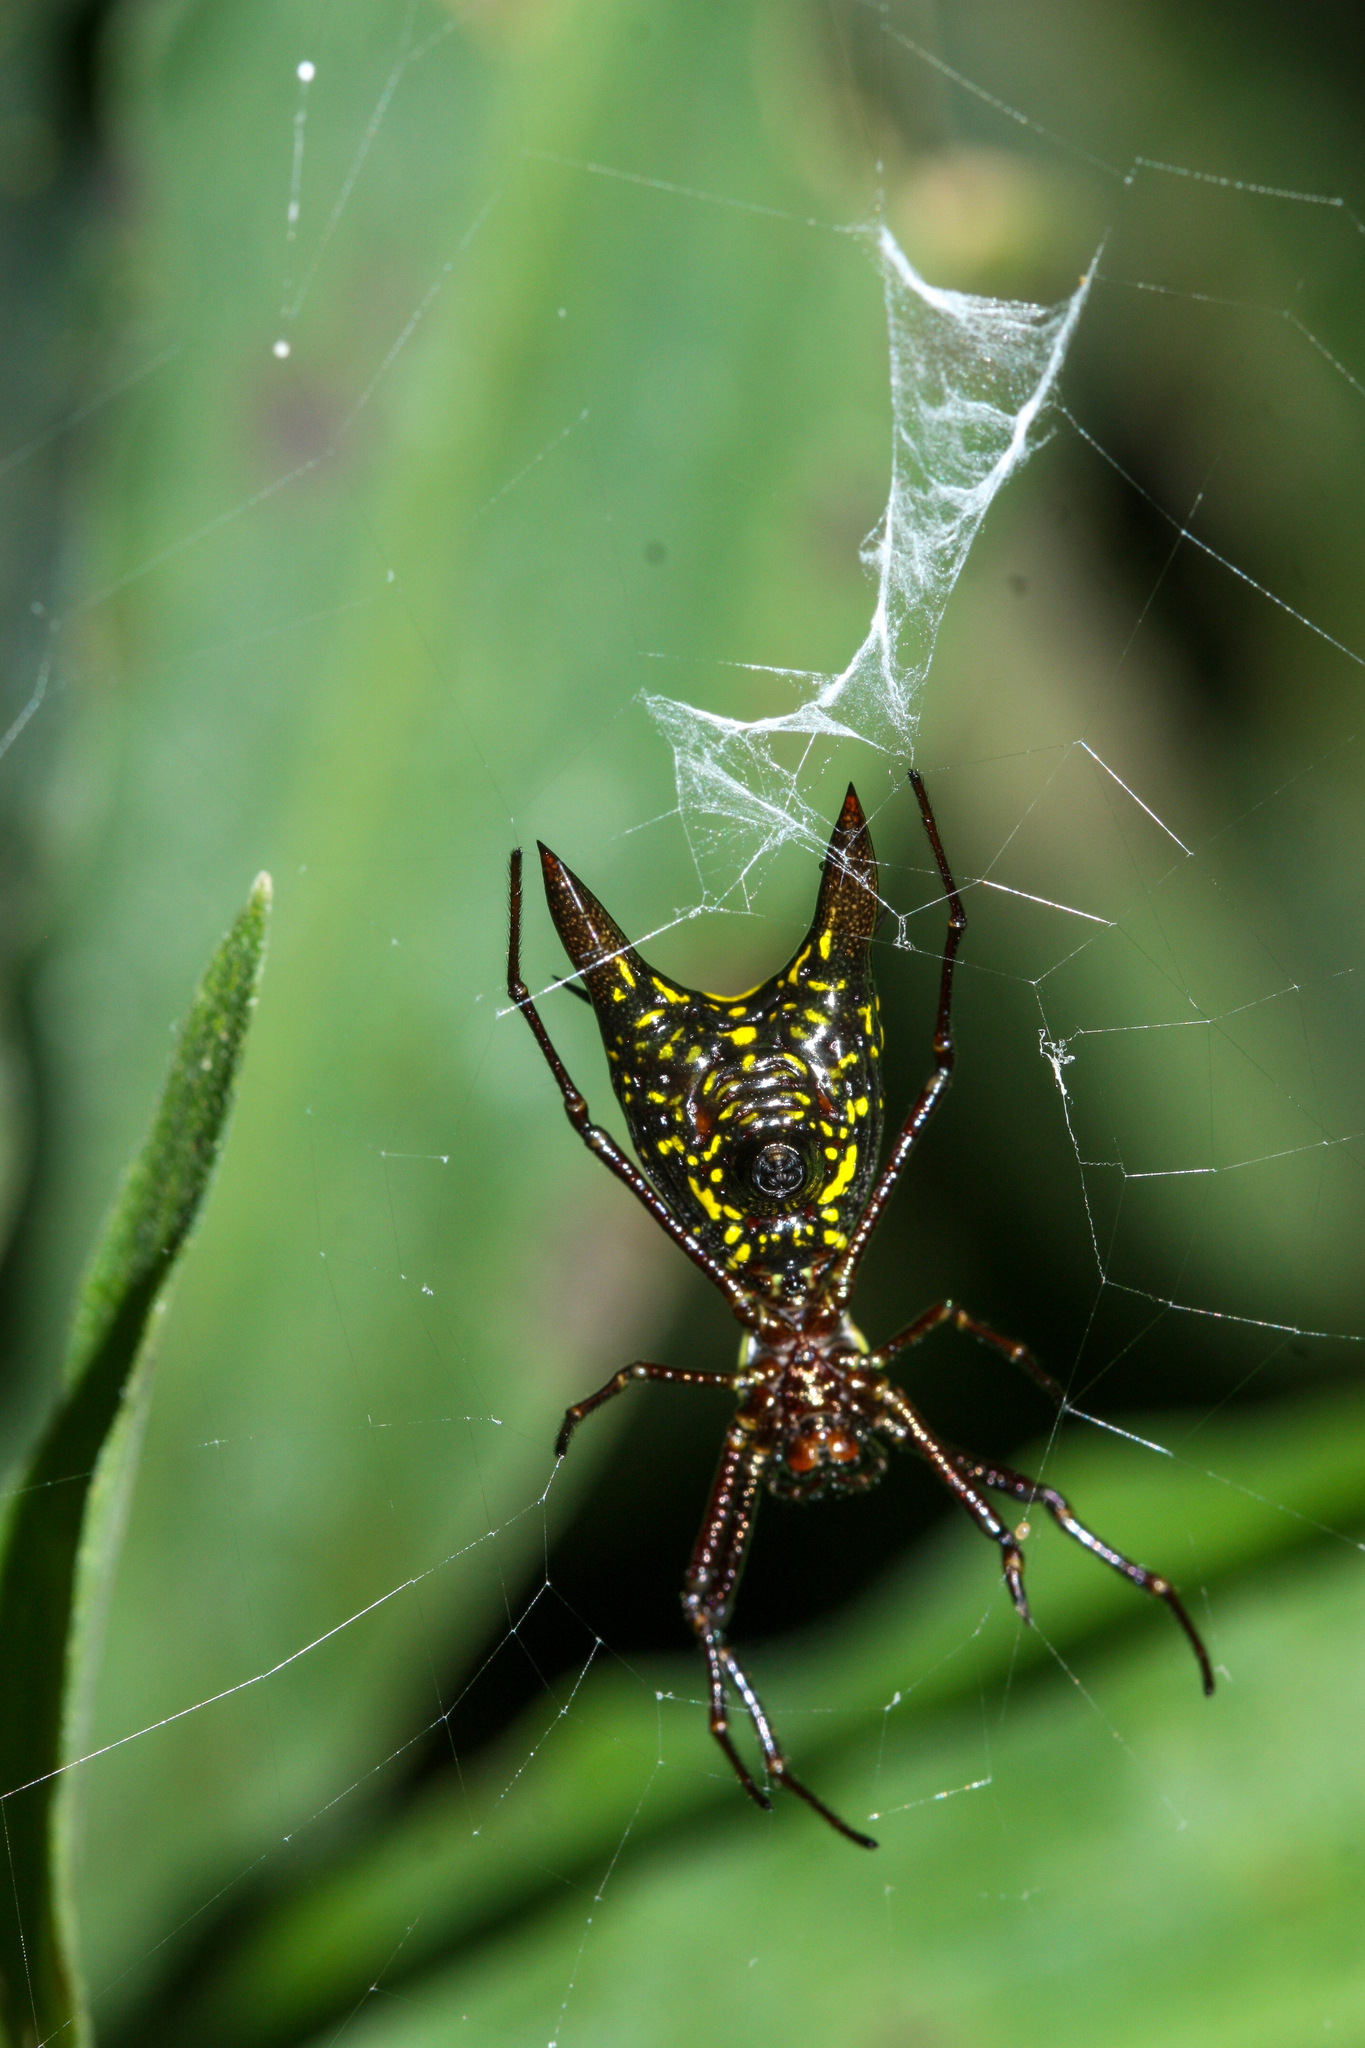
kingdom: Animalia
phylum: Arthropoda
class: Arachnida
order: Araneae
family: Araneidae
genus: Micrathena
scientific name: Micrathena pichincha
